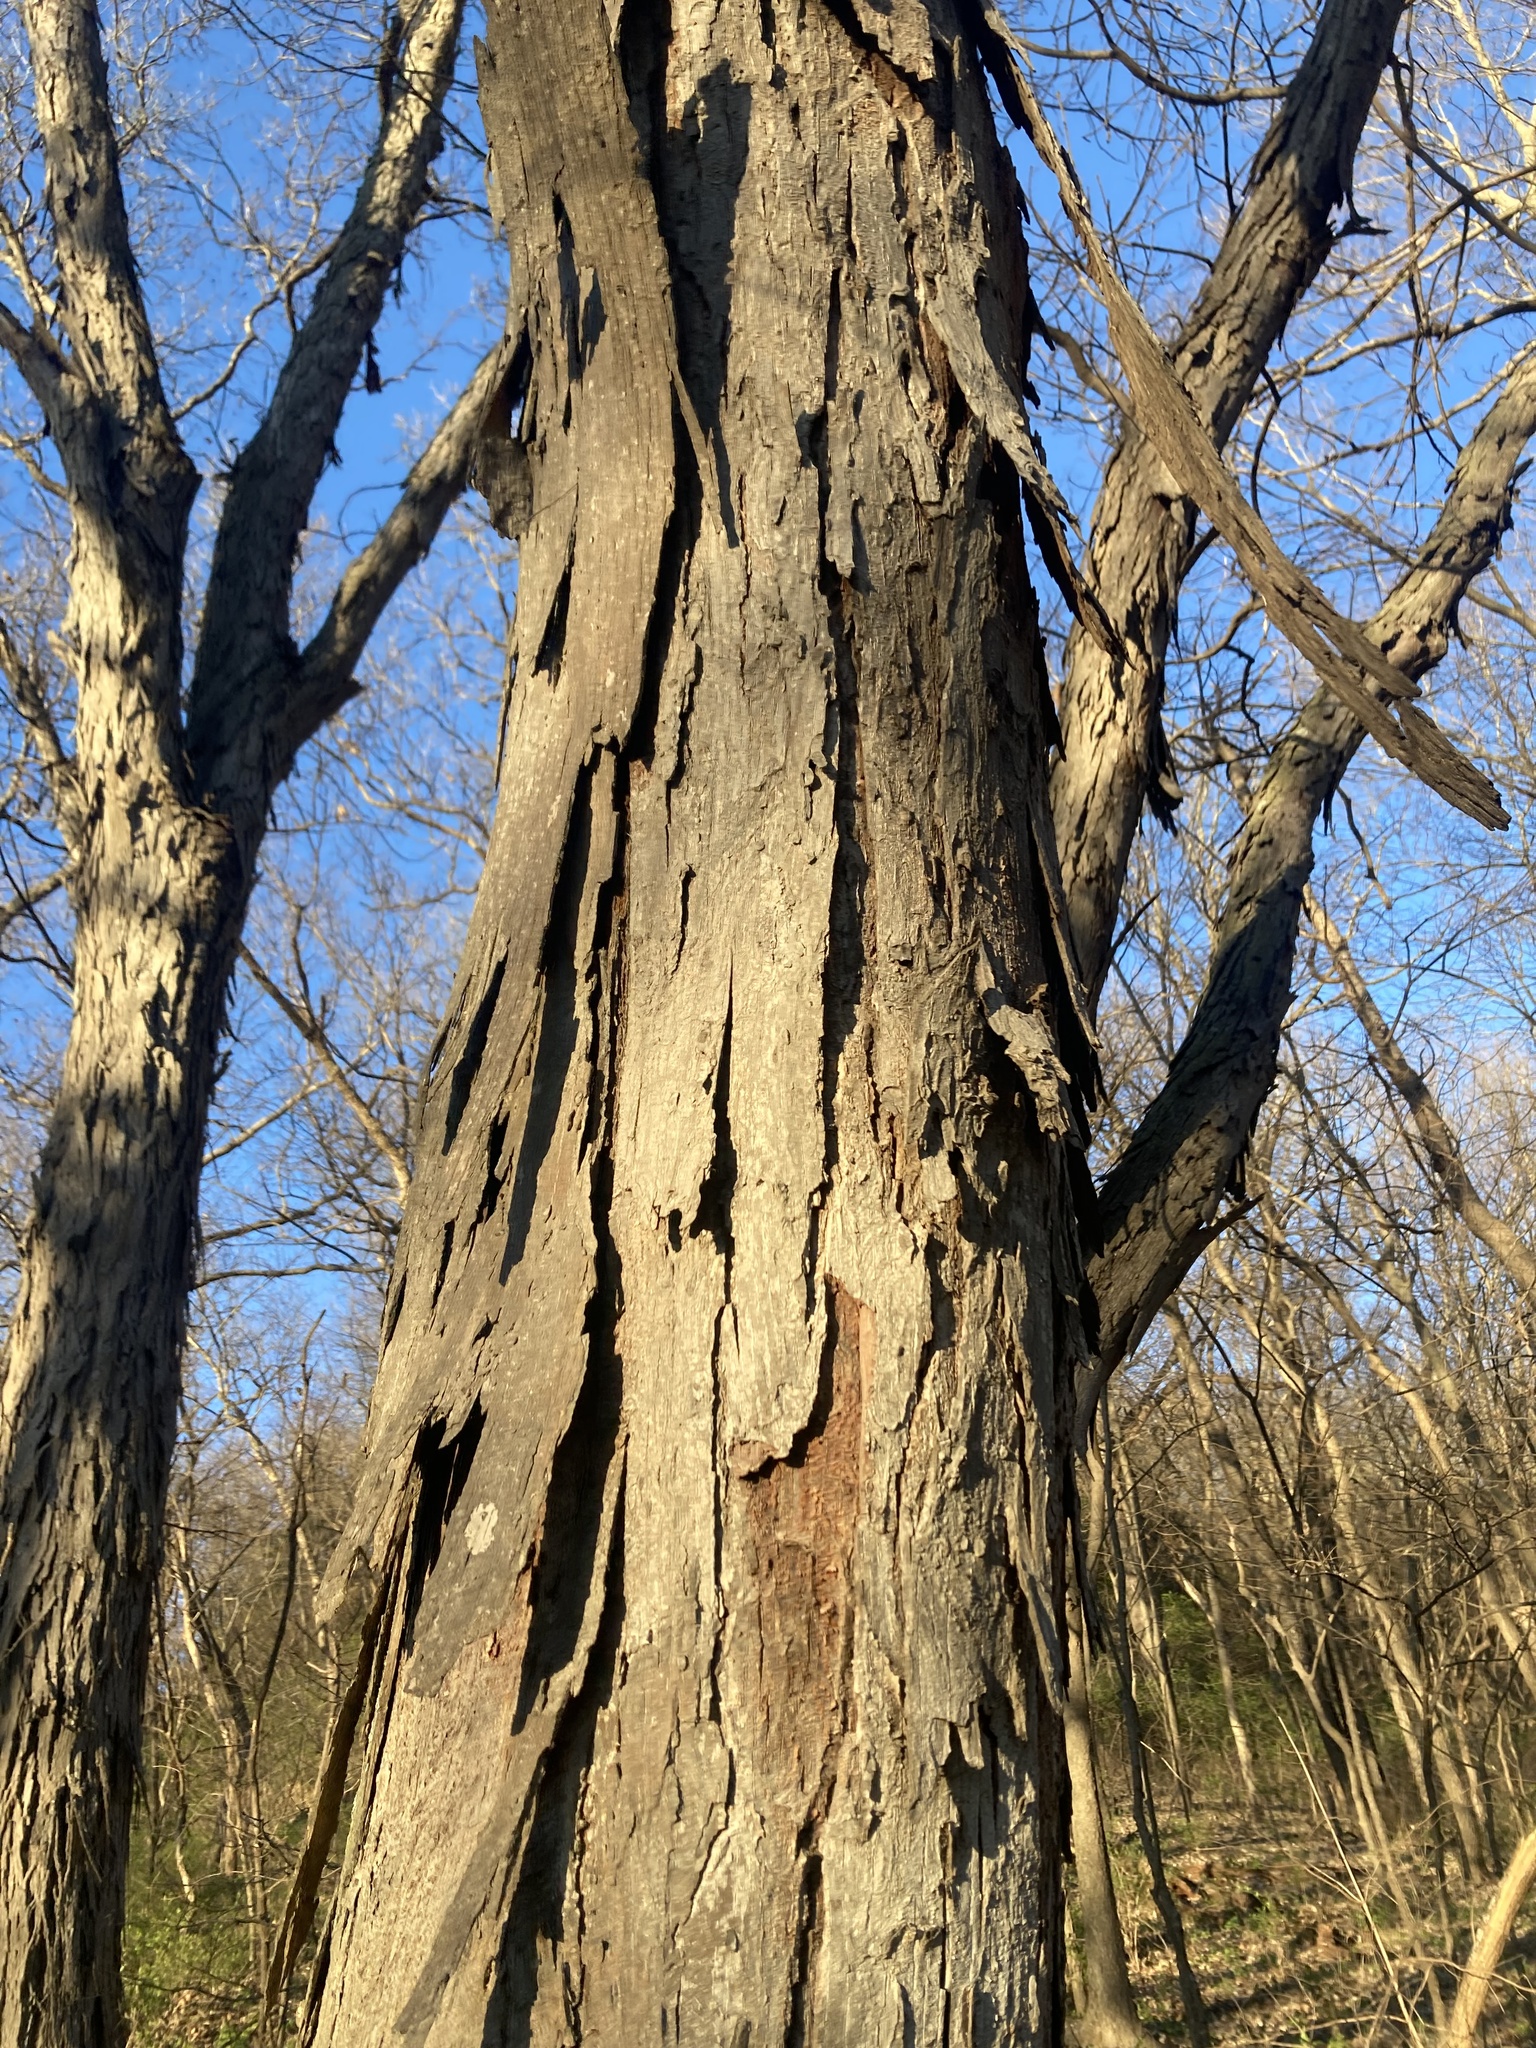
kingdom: Plantae
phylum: Tracheophyta
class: Magnoliopsida
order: Fagales
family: Juglandaceae
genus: Carya
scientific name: Carya ovata
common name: Shagbark hickory
